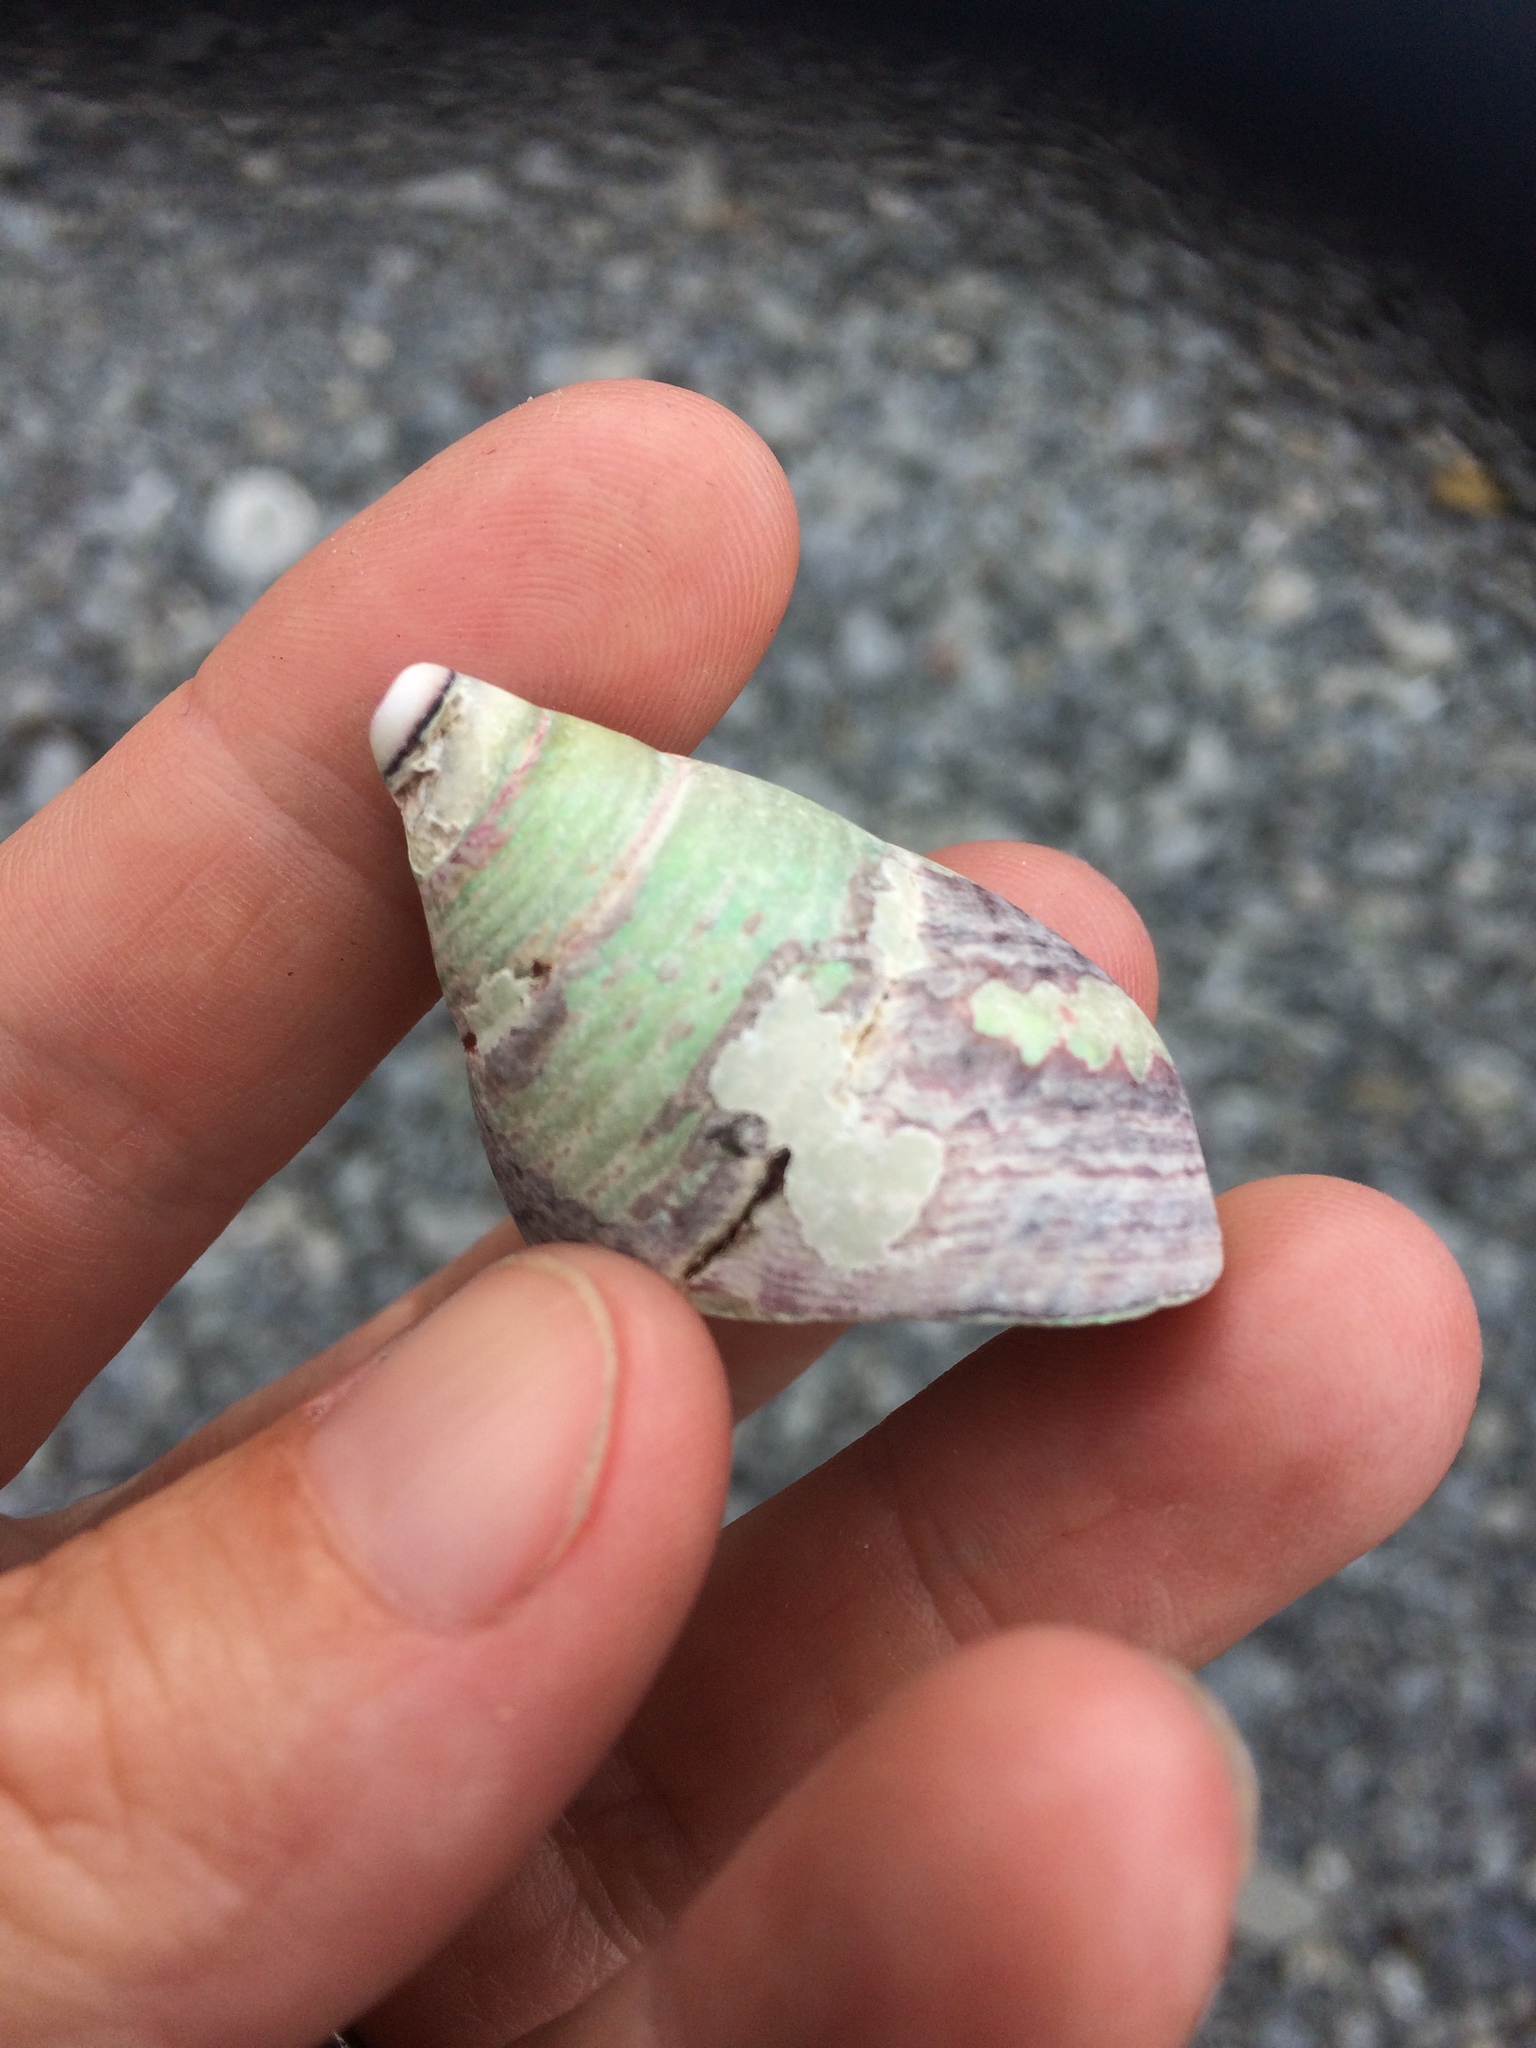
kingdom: Animalia
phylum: Mollusca
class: Gastropoda
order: Trochida
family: Trochidae
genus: Cantharidus
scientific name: Cantharidus opalus
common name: Opal jewel topsnail
